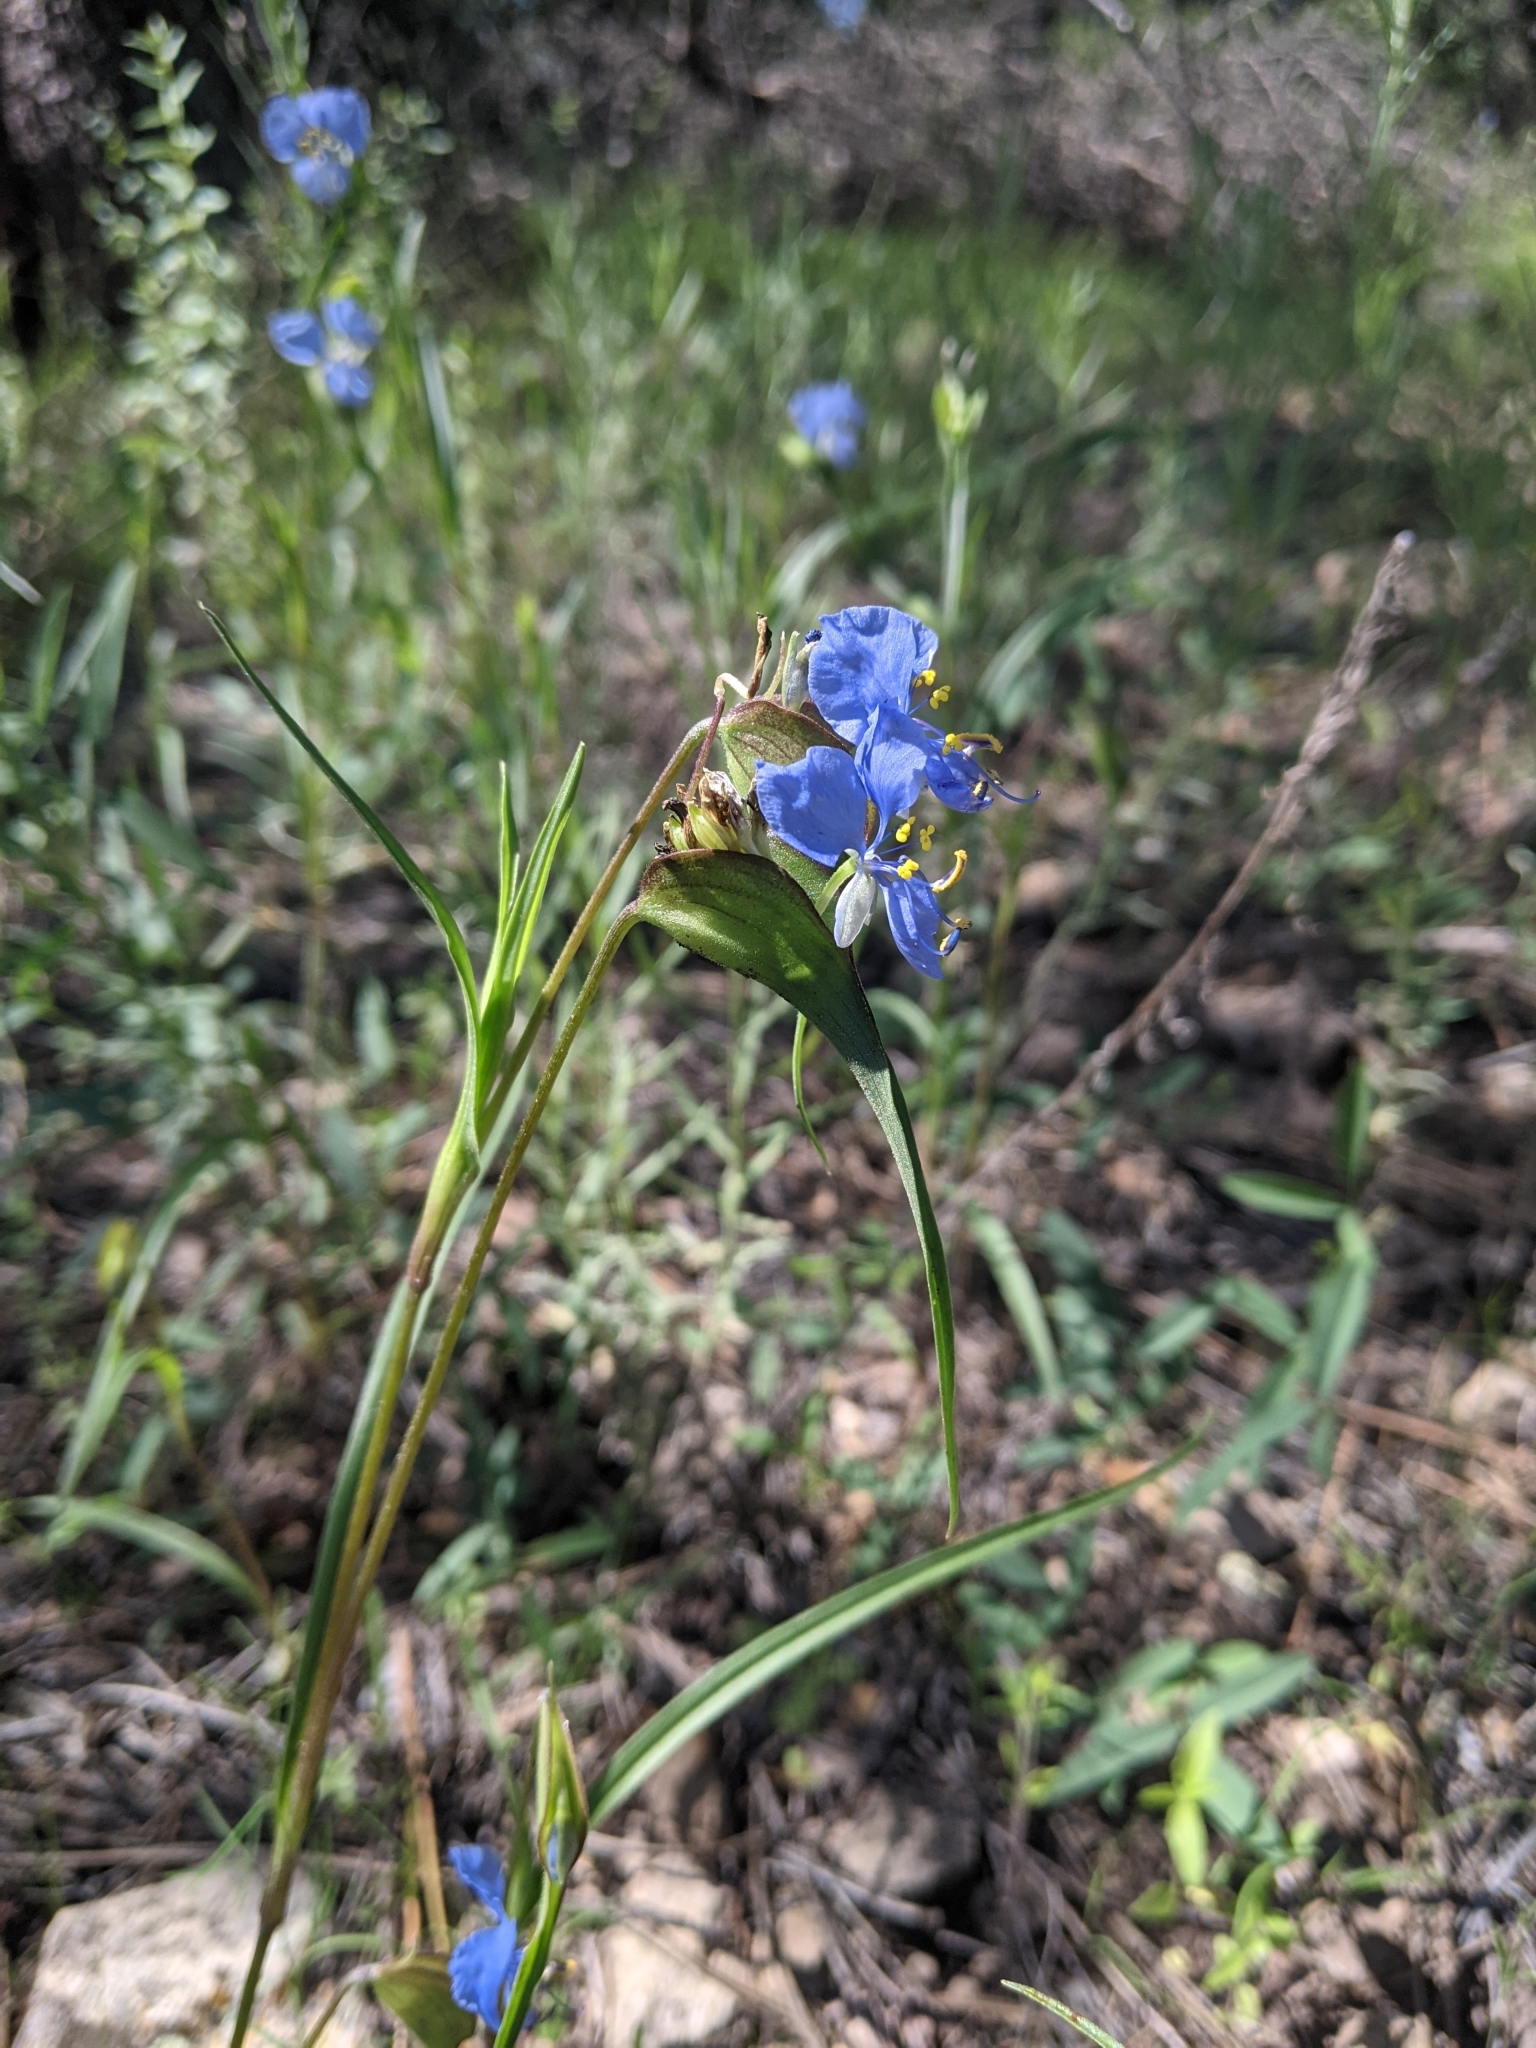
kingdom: Plantae
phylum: Tracheophyta
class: Liliopsida
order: Commelinales
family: Commelinaceae
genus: Commelina
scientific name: Commelina dianthifolia
